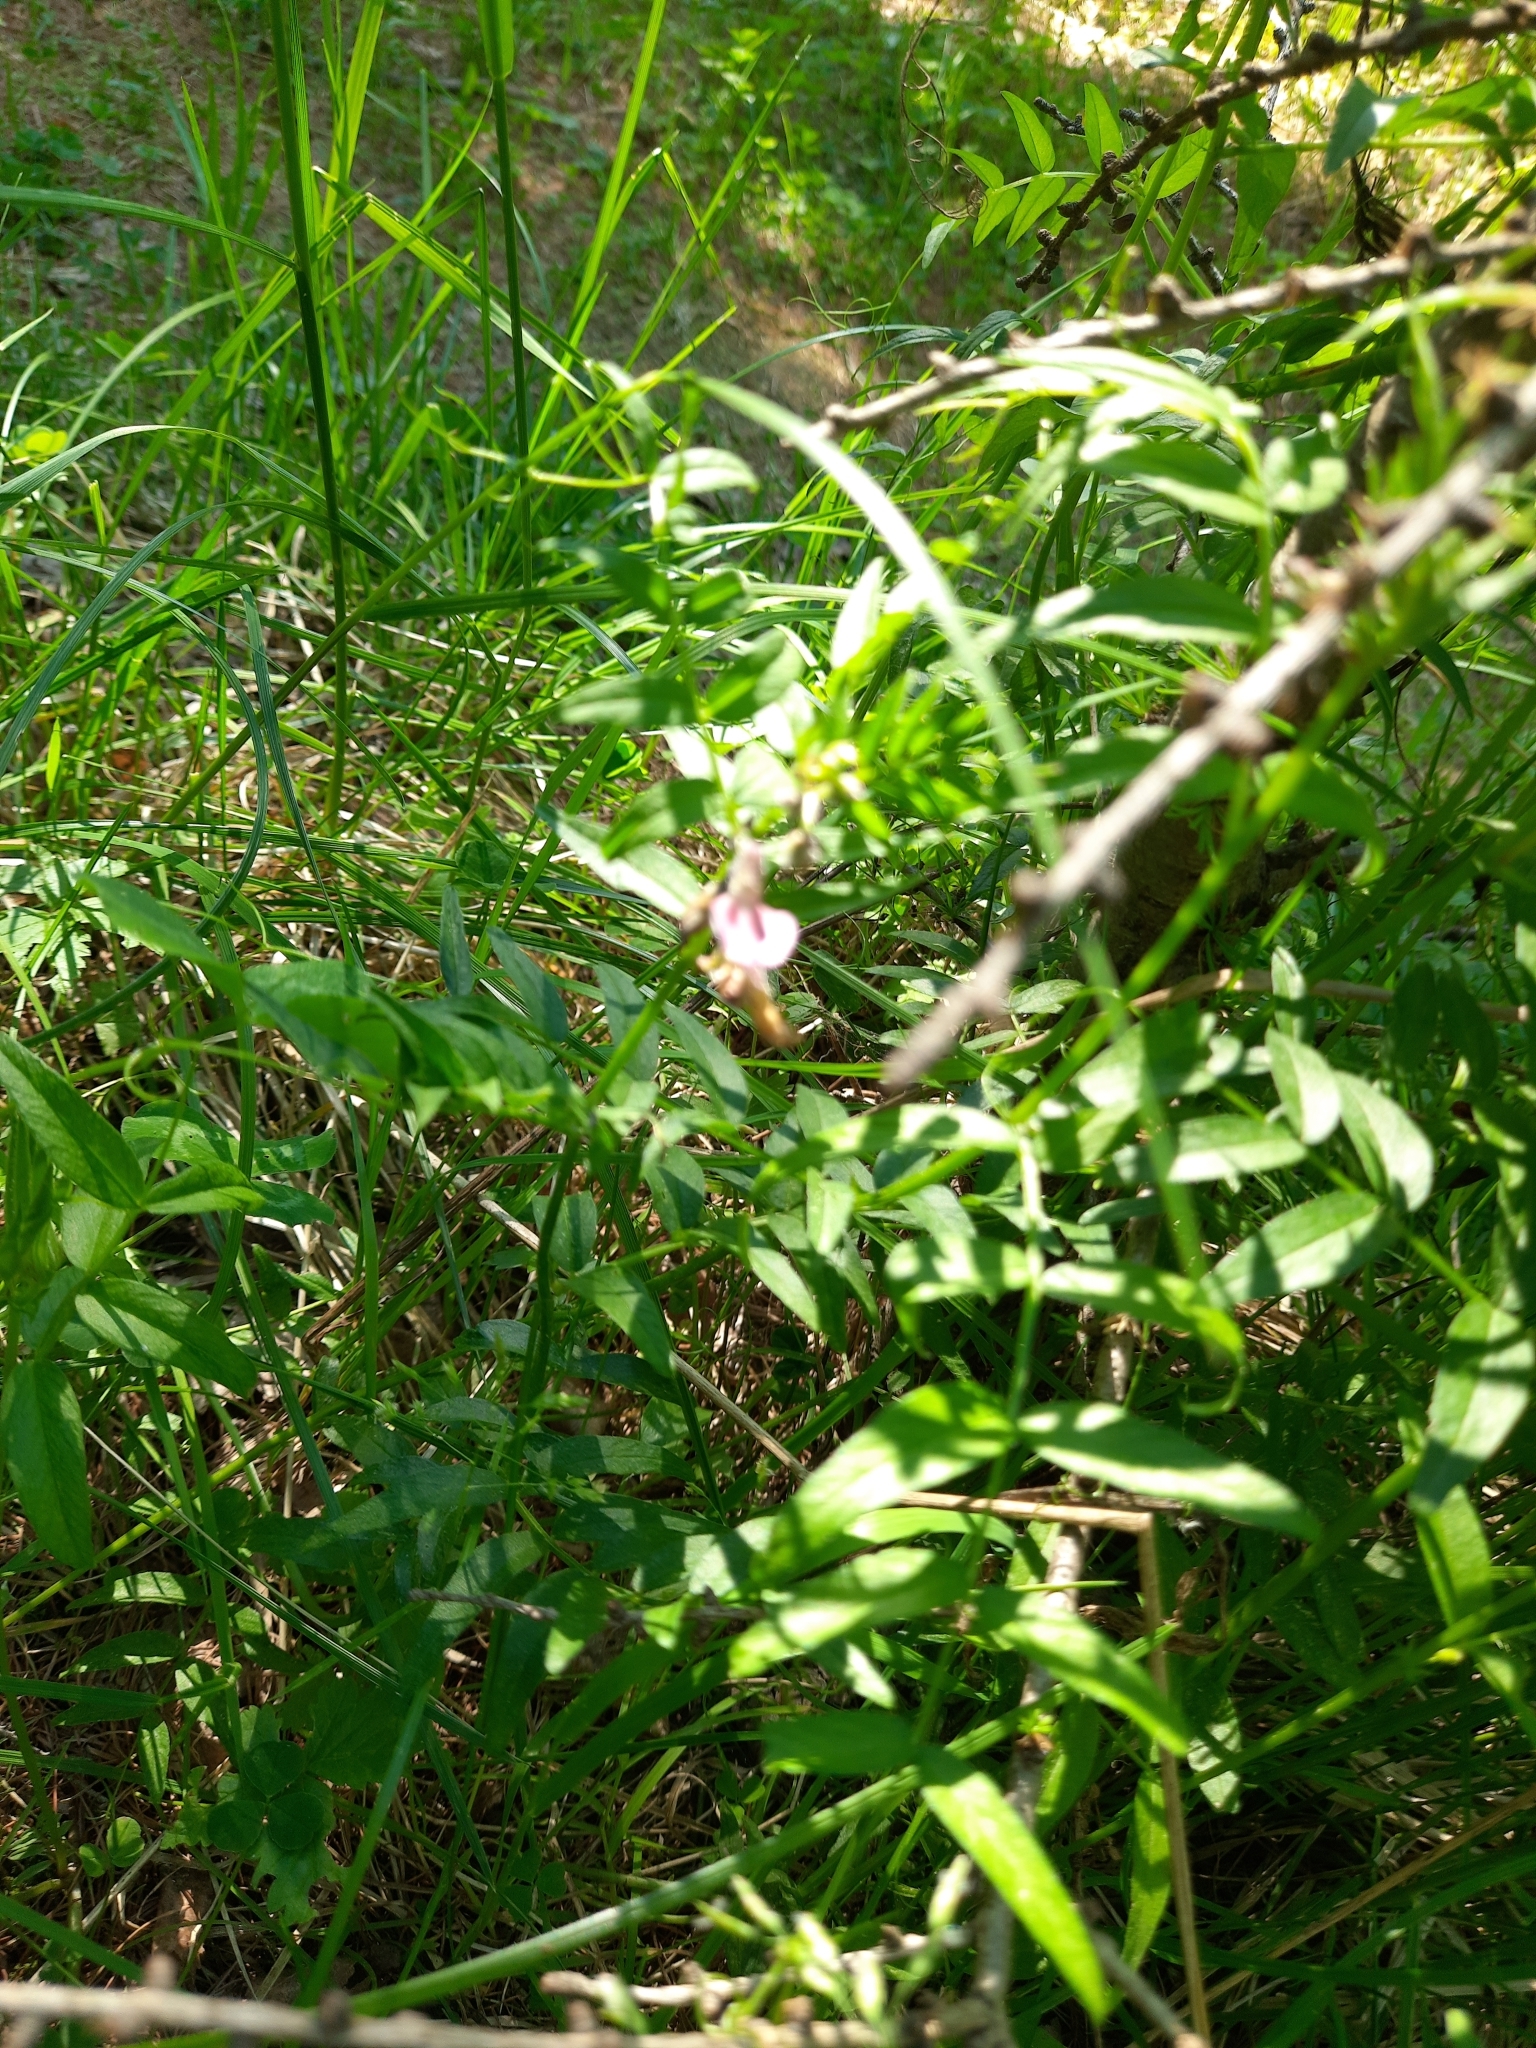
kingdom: Plantae
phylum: Tracheophyta
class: Magnoliopsida
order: Fabales
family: Fabaceae
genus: Vicia
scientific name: Vicia sepium
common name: Bush vetch
